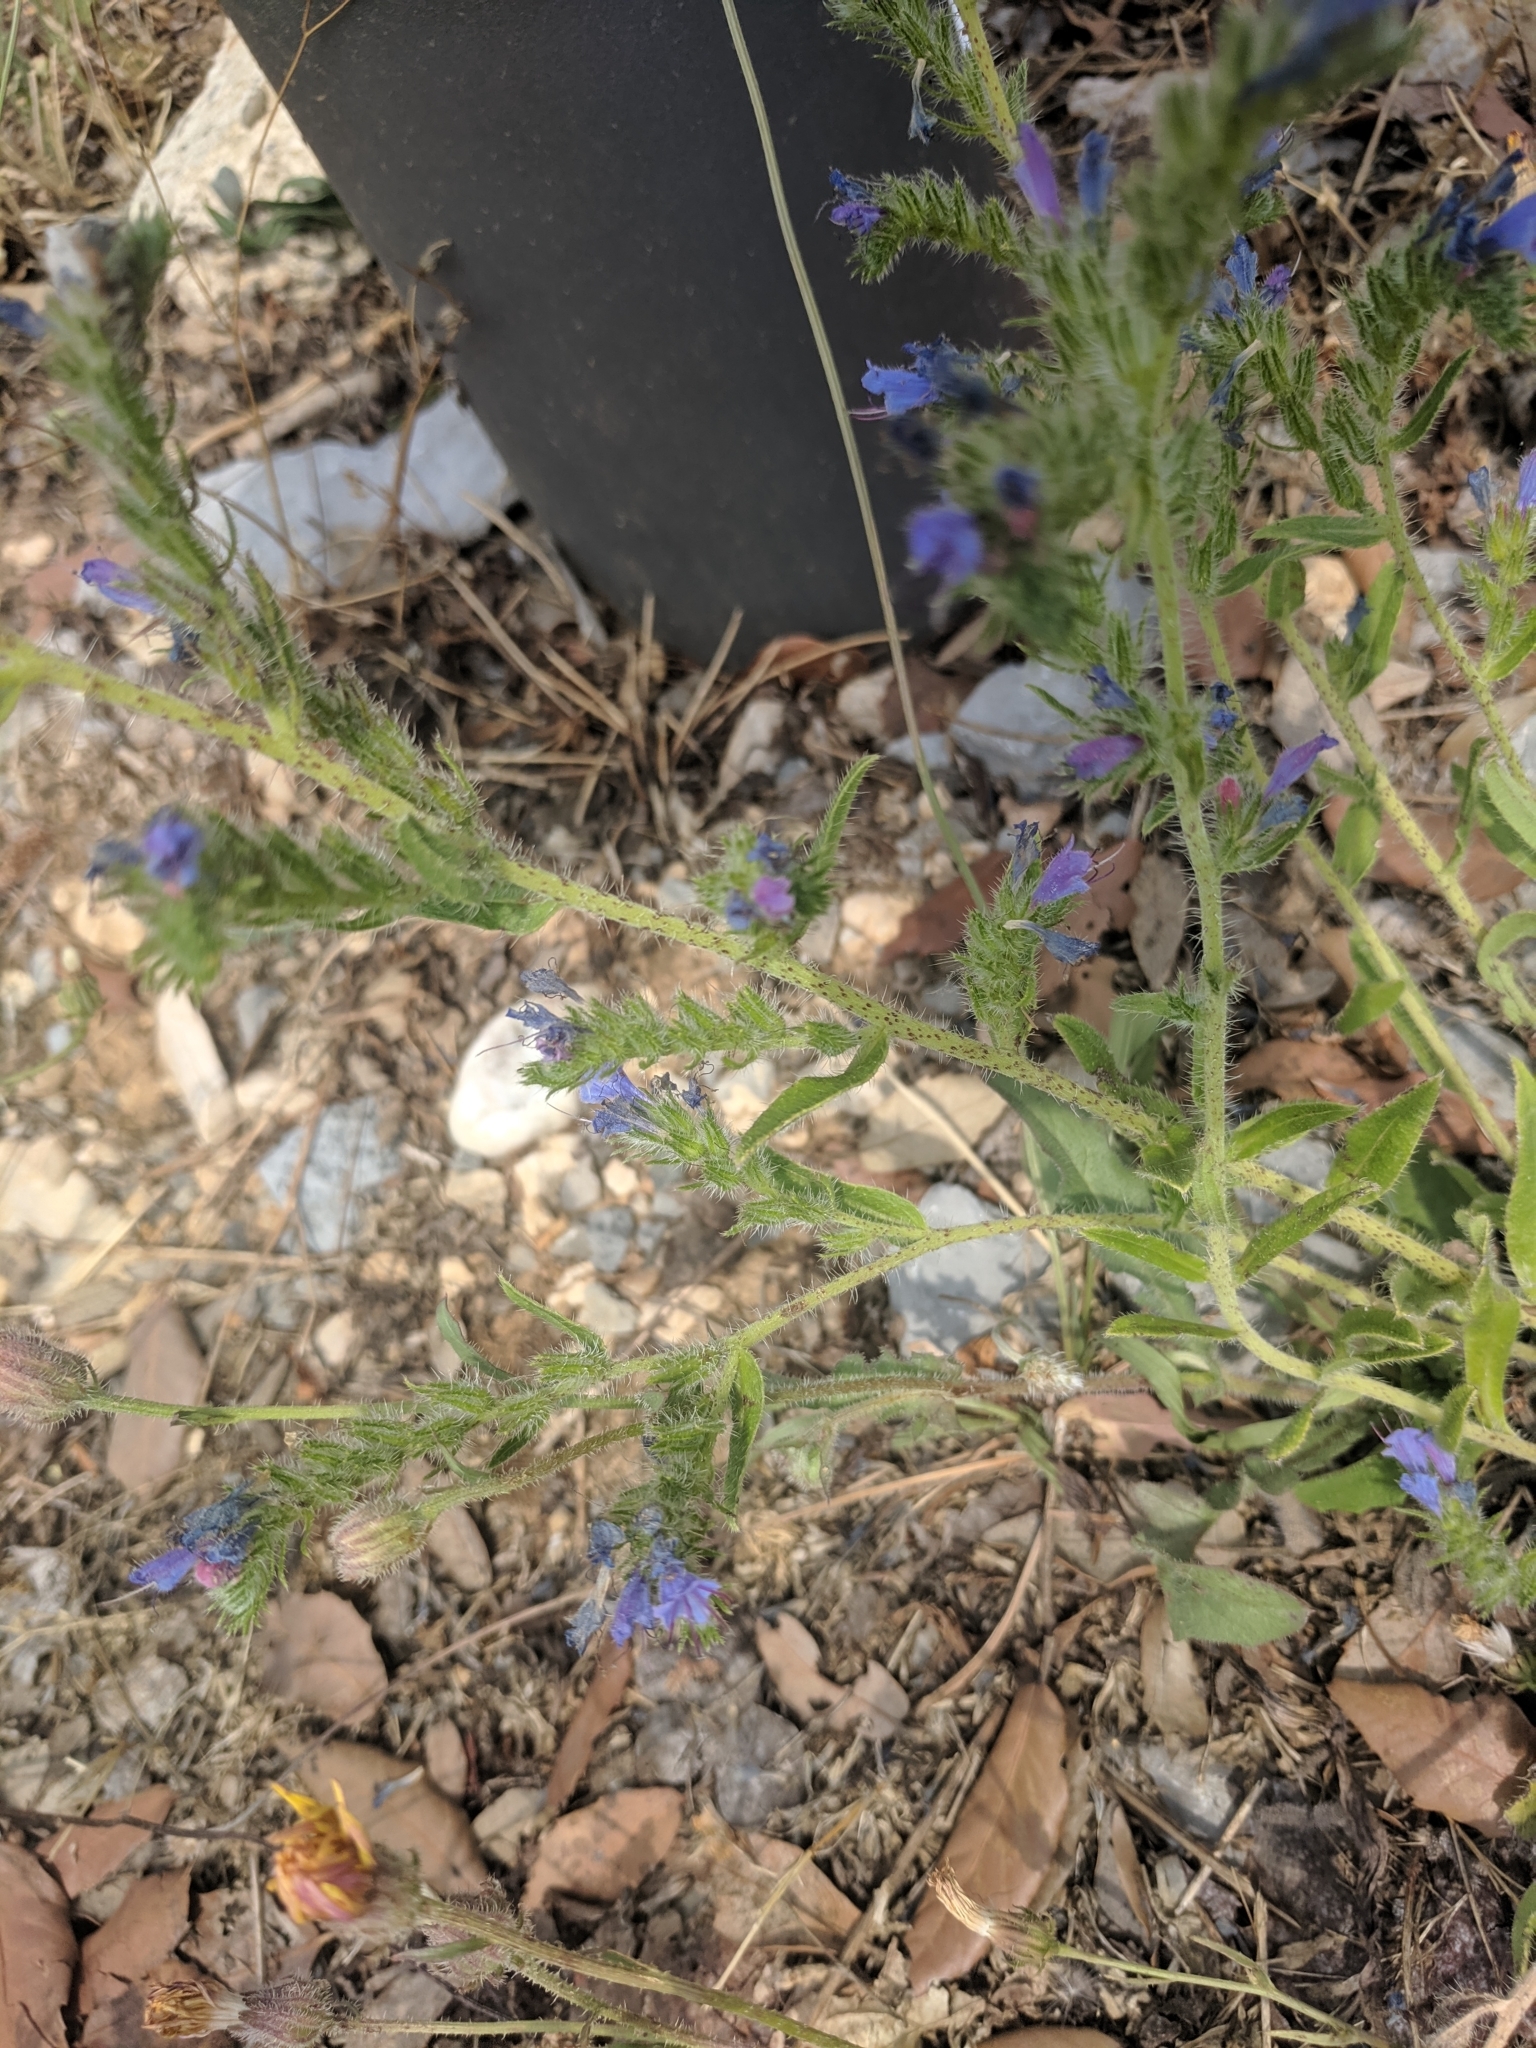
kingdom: Plantae
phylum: Tracheophyta
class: Magnoliopsida
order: Boraginales
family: Boraginaceae
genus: Echium
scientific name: Echium vulgare
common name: Common viper's bugloss
